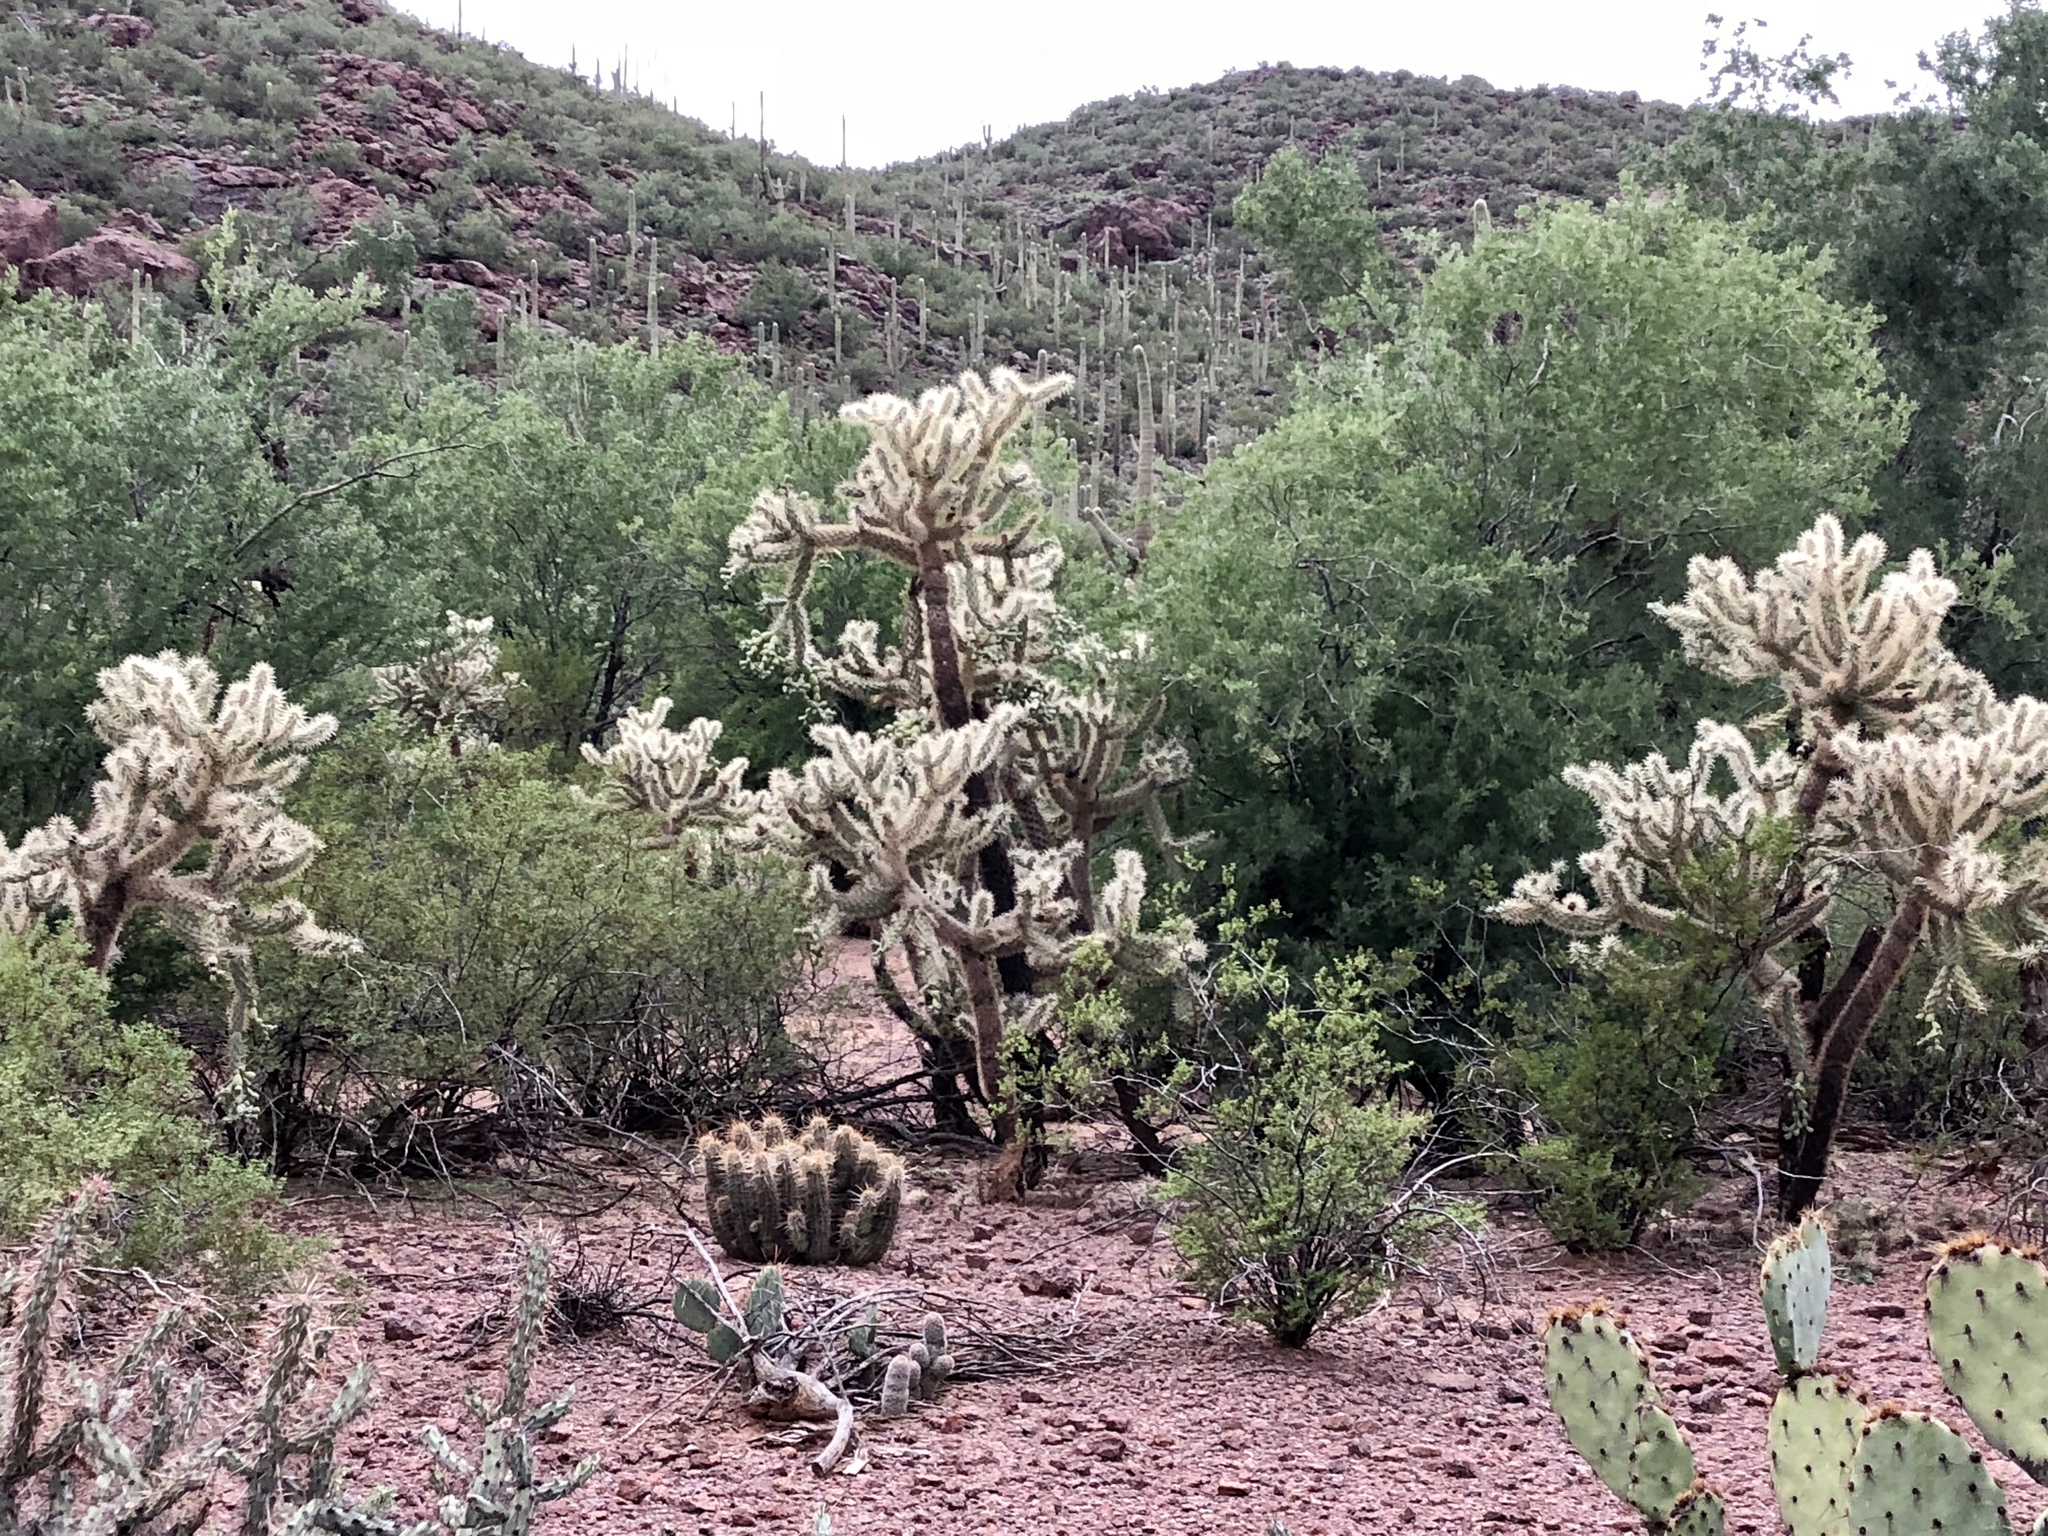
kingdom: Plantae
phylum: Tracheophyta
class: Magnoliopsida
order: Caryophyllales
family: Cactaceae
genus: Cylindropuntia
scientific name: Cylindropuntia fulgida
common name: Jumping cholla
